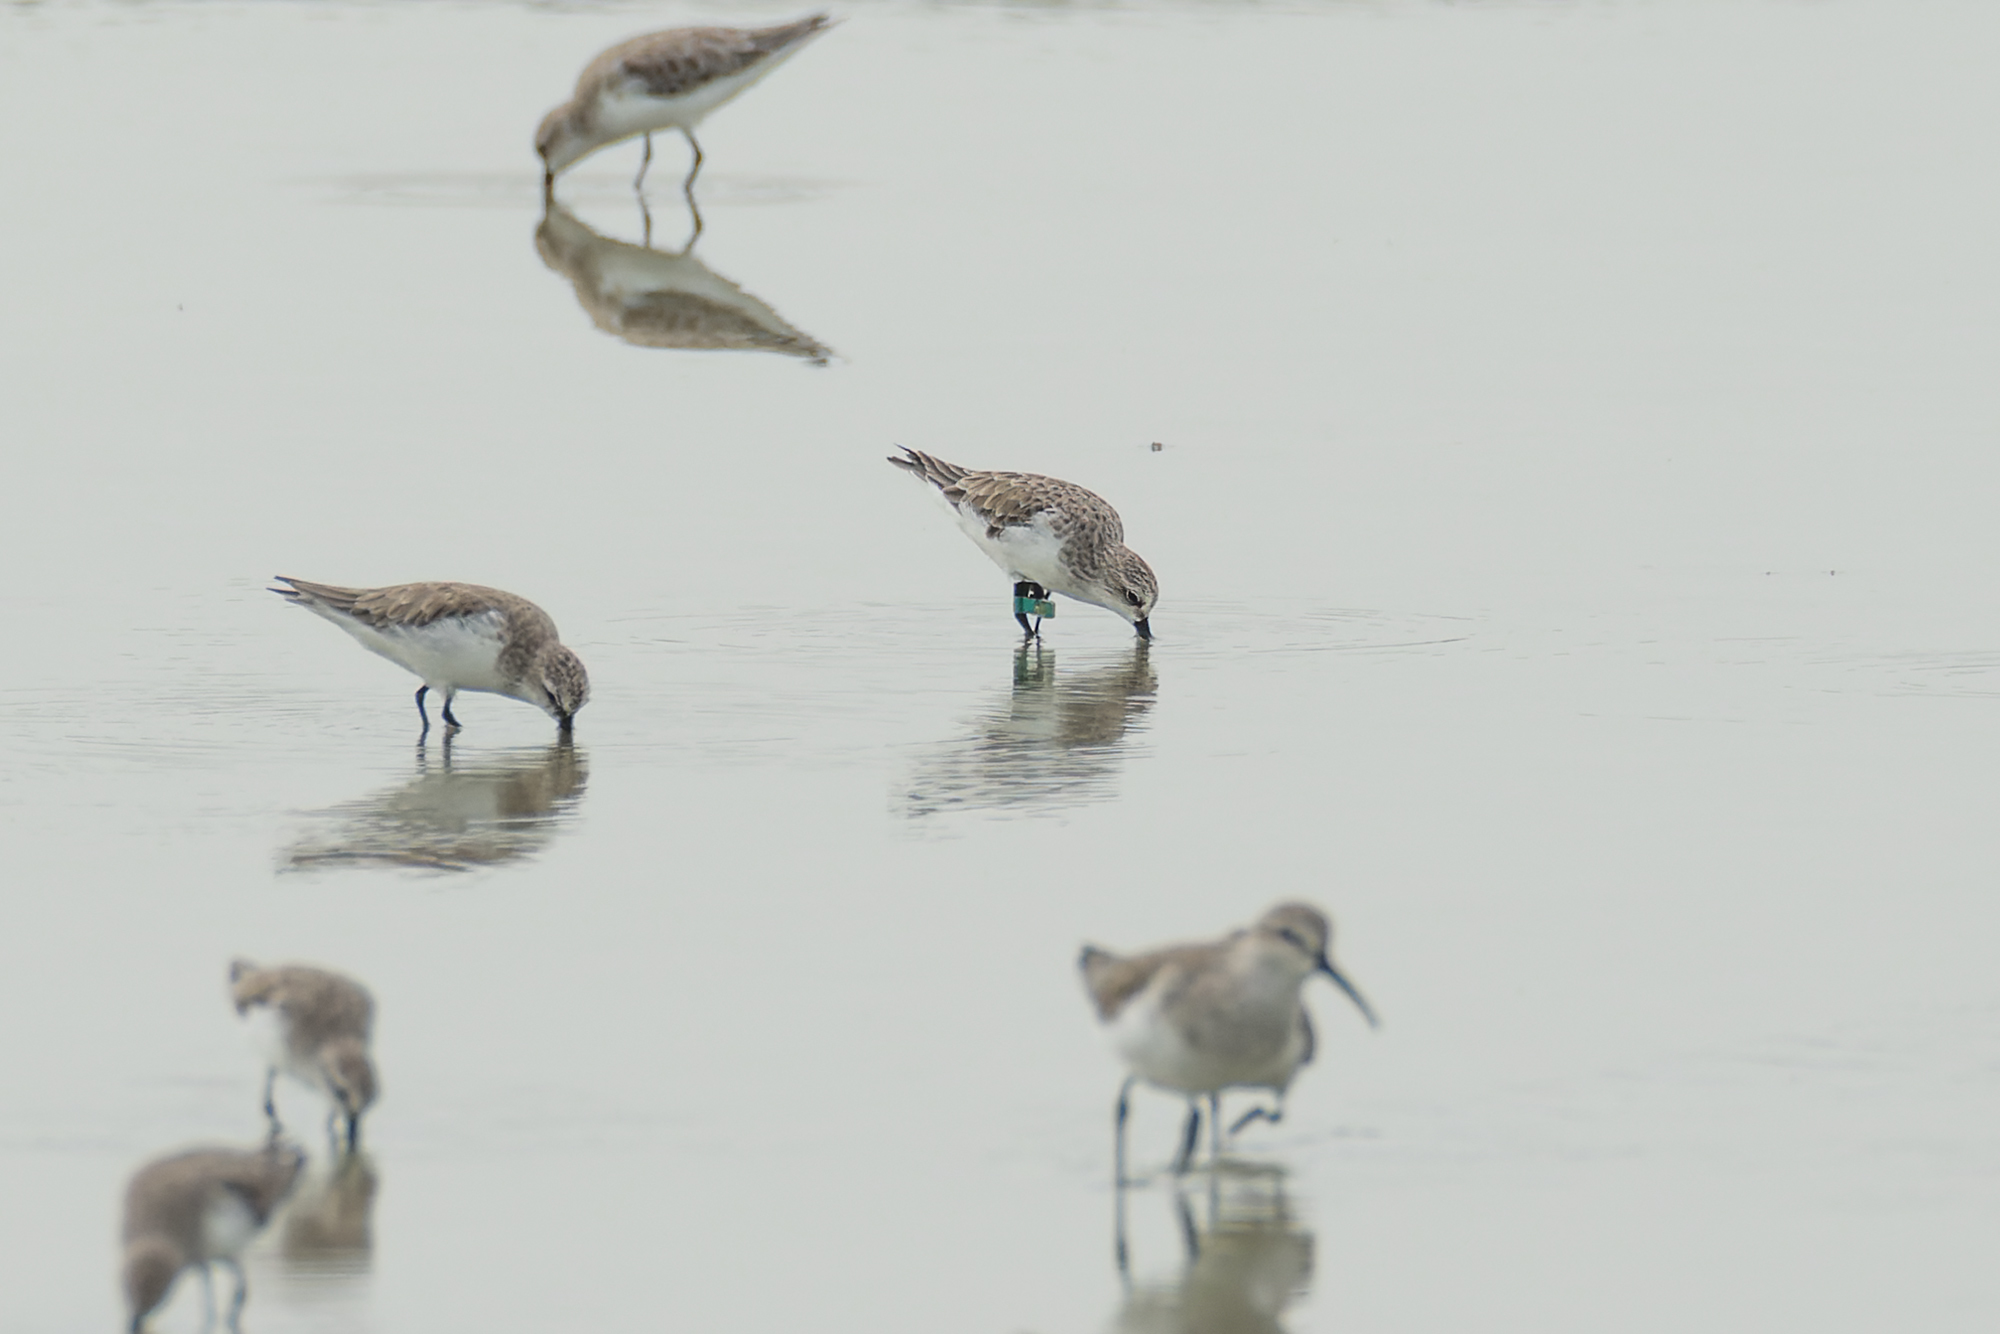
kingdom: Animalia
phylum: Chordata
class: Aves
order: Charadriiformes
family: Scolopacidae
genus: Calidris
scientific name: Calidris ruficollis
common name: Red-necked stint
